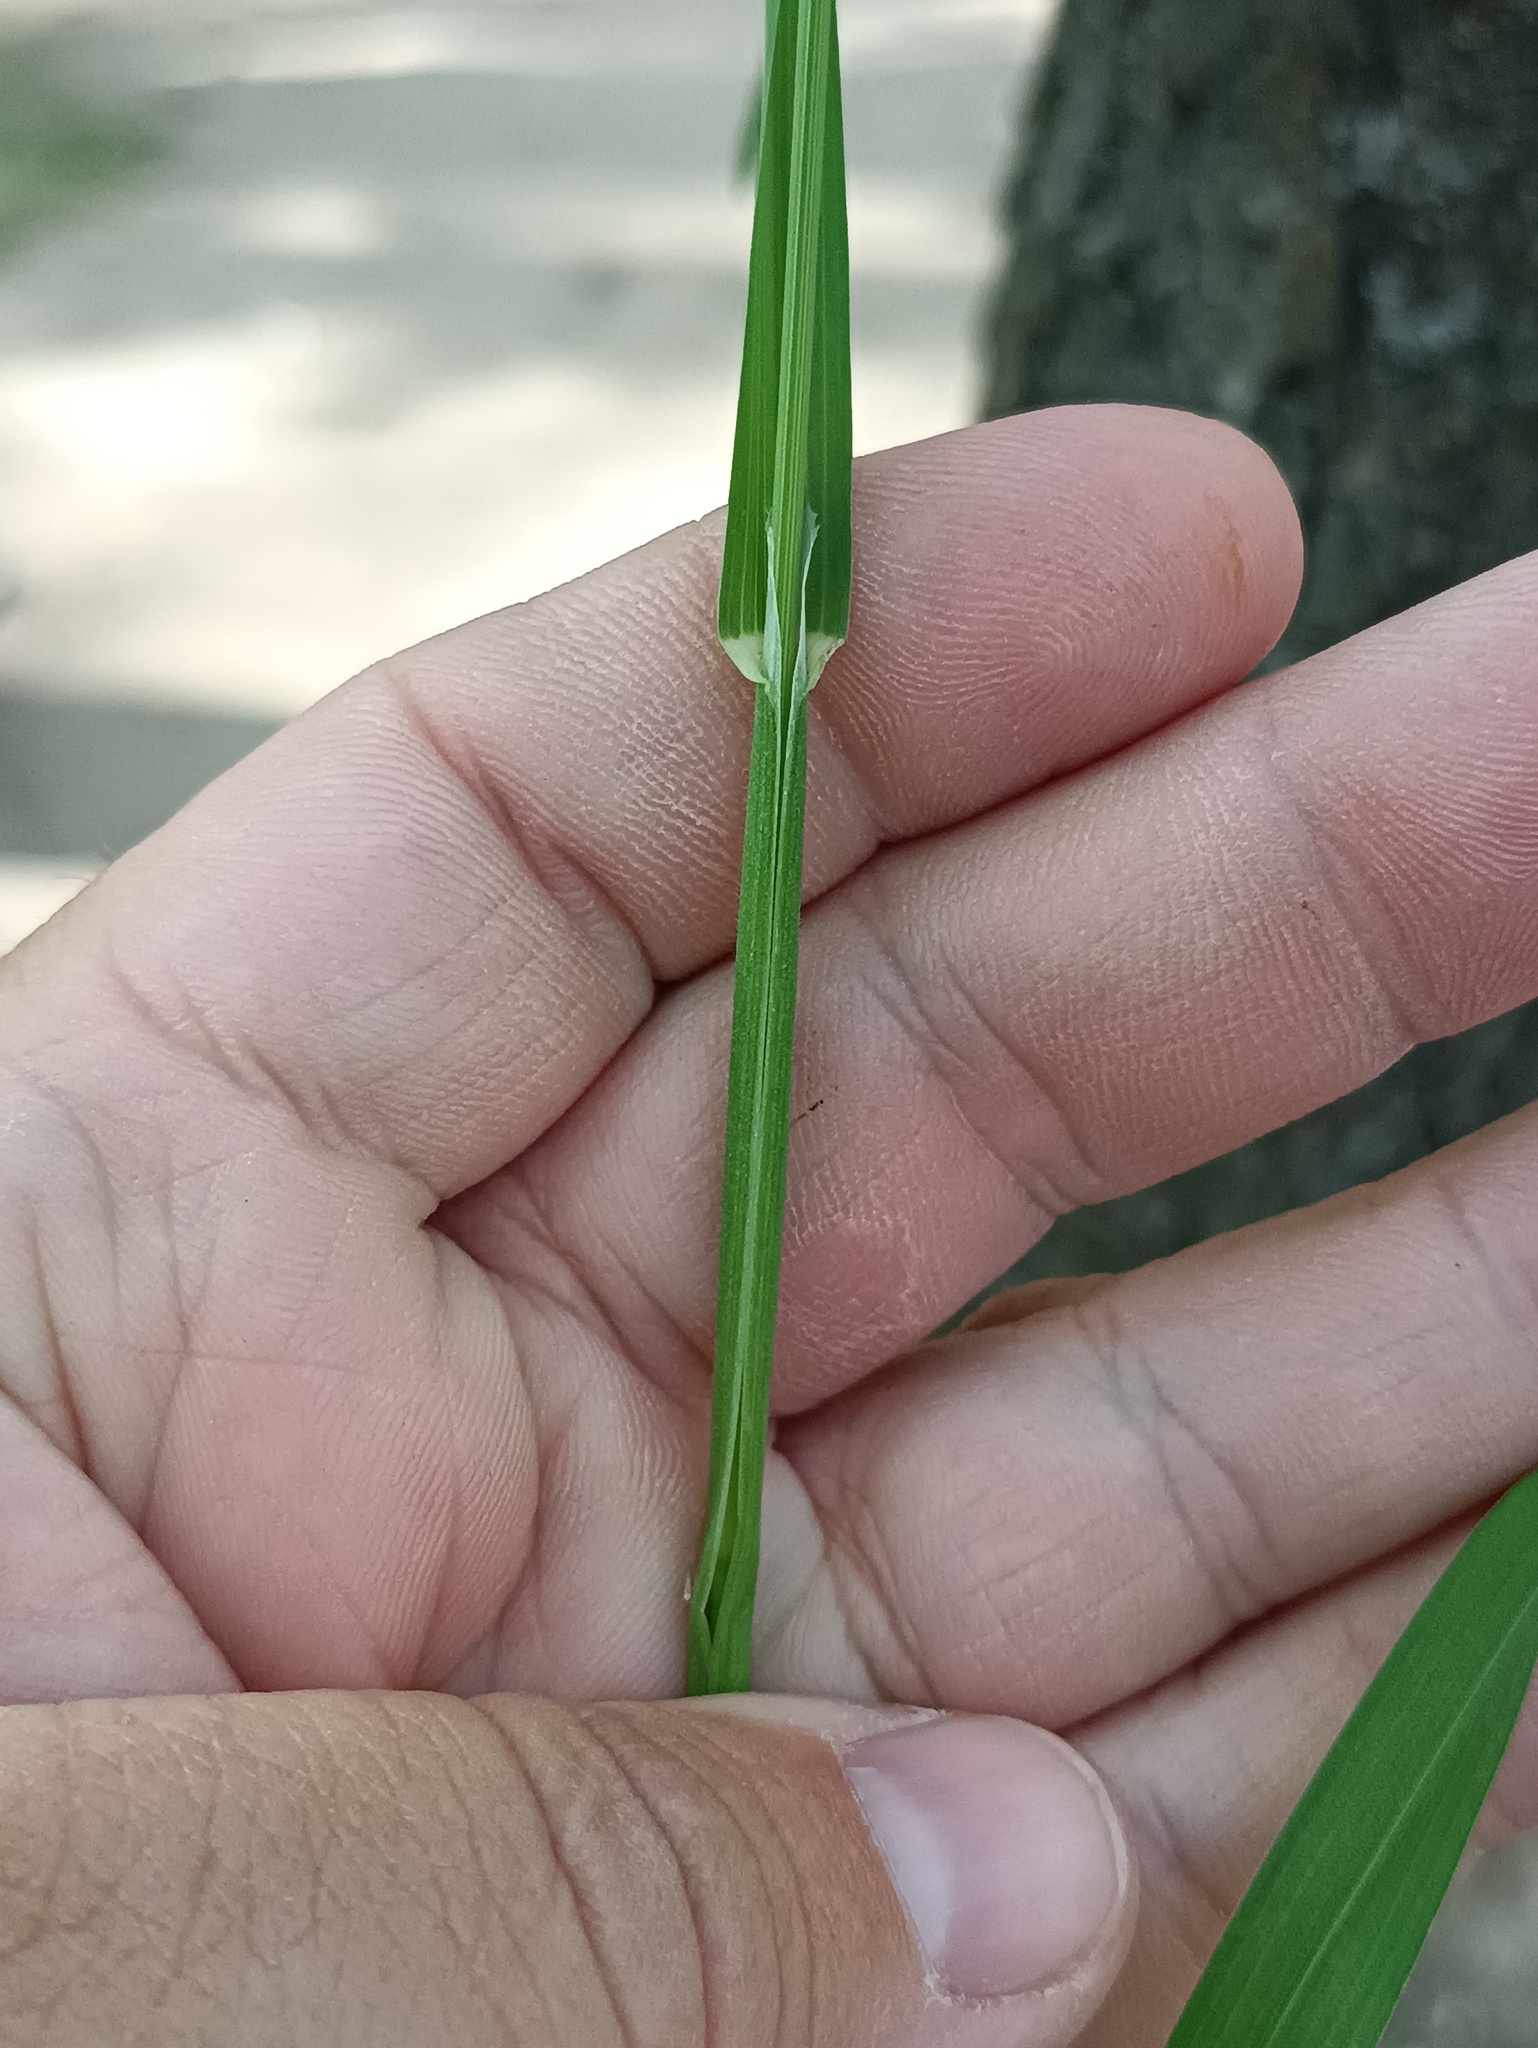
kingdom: Plantae
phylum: Tracheophyta
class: Liliopsida
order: Poales
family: Poaceae
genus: Dactylis
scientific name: Dactylis glomerata
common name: Orchardgrass
